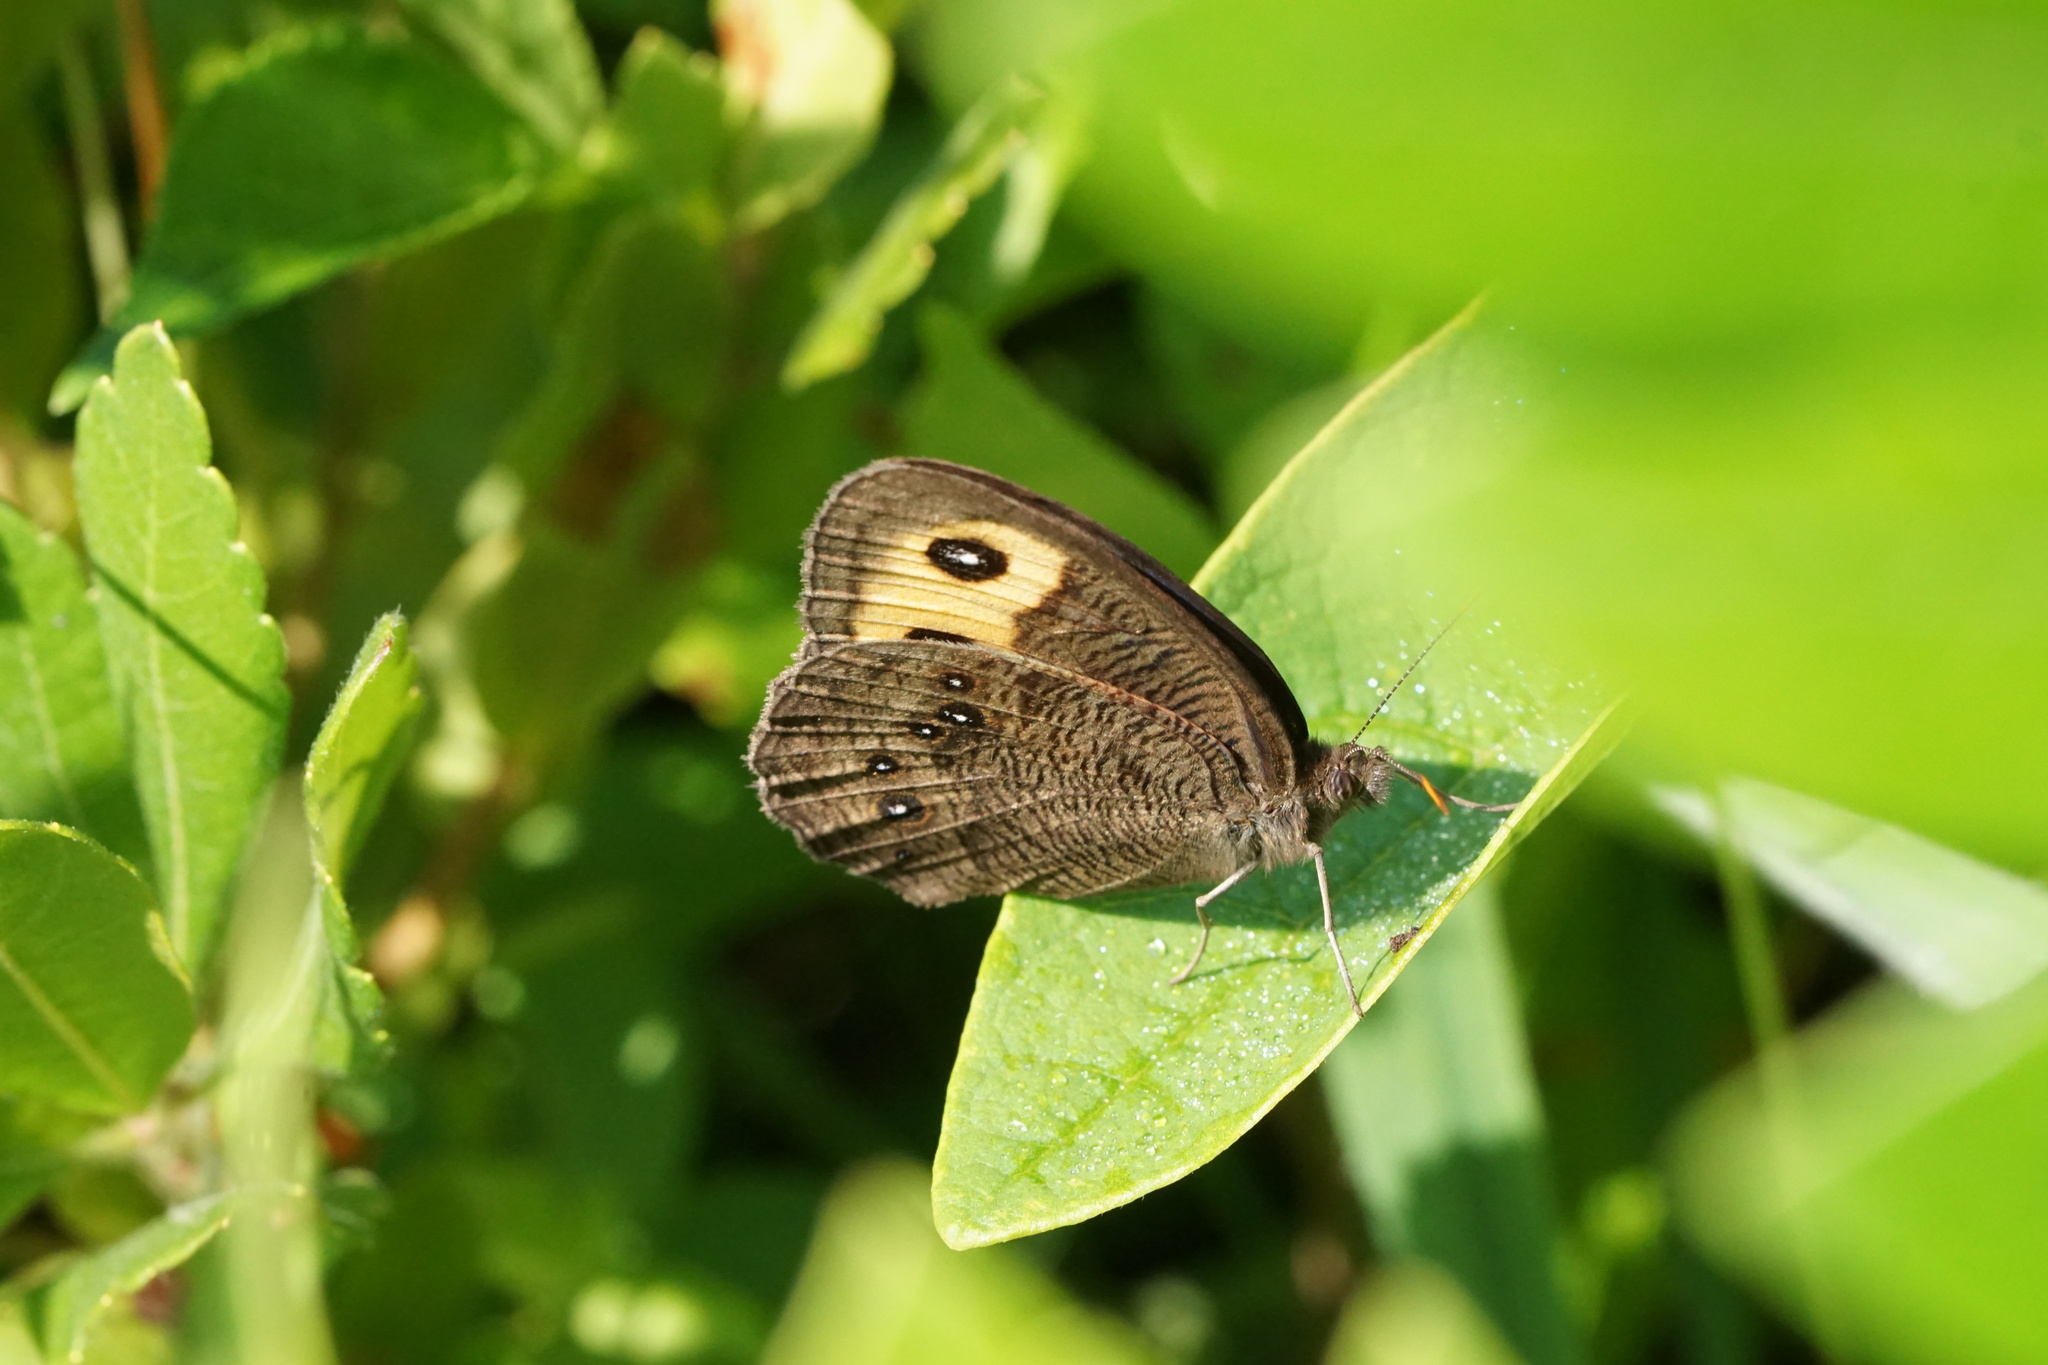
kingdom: Animalia
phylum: Arthropoda
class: Insecta
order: Lepidoptera
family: Nymphalidae
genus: Cercyonis
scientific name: Cercyonis pegala
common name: Common wood-nymph
